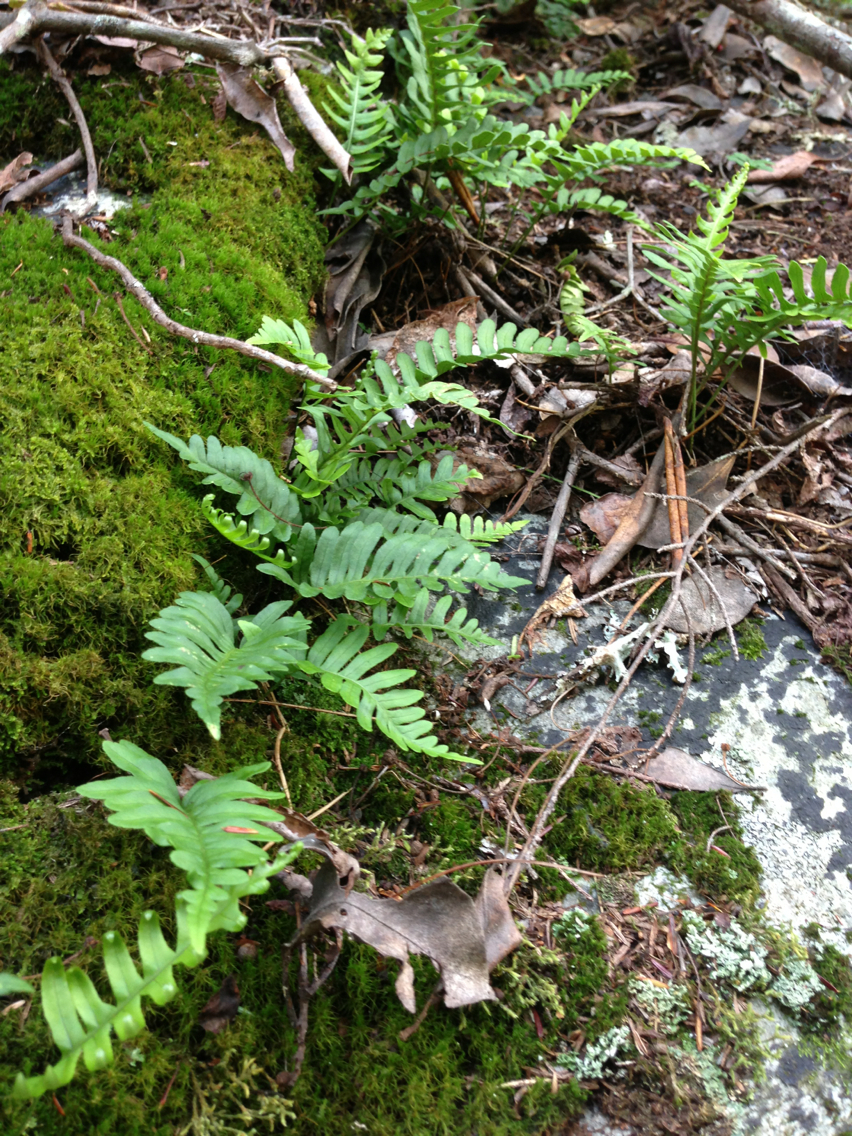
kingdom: Plantae
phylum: Tracheophyta
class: Polypodiopsida
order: Polypodiales
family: Polypodiaceae
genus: Polypodium
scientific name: Polypodium virginianum
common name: American wall fern
